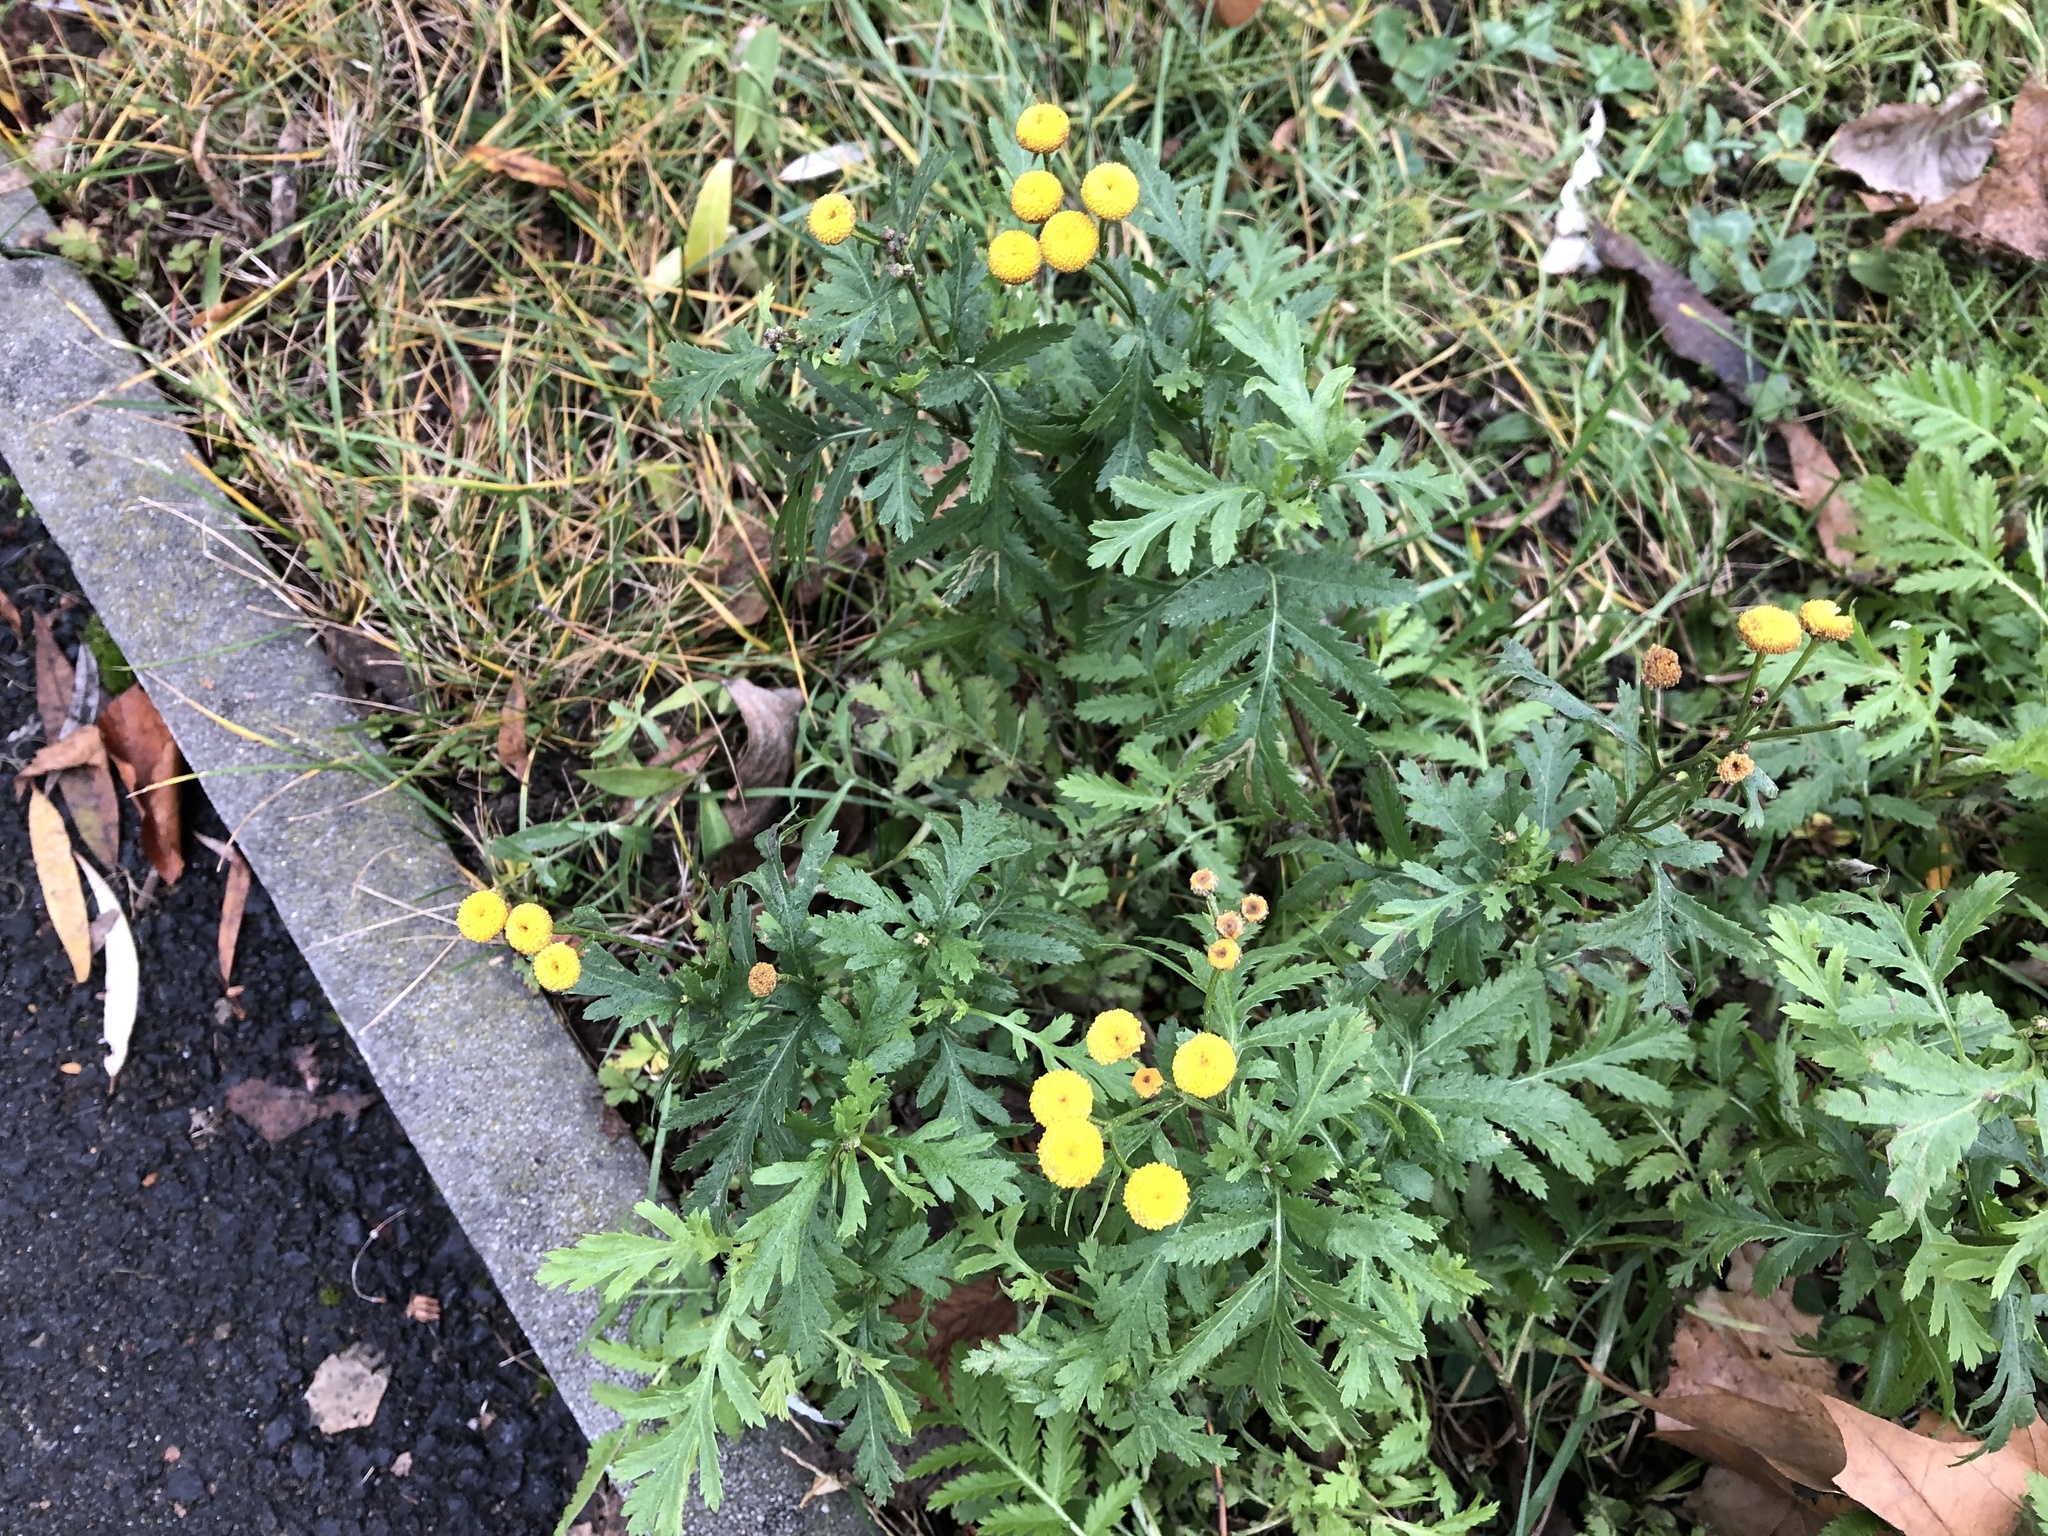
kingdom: Plantae
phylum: Tracheophyta
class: Magnoliopsida
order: Asterales
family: Asteraceae
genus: Tanacetum
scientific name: Tanacetum vulgare
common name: Common tansy
